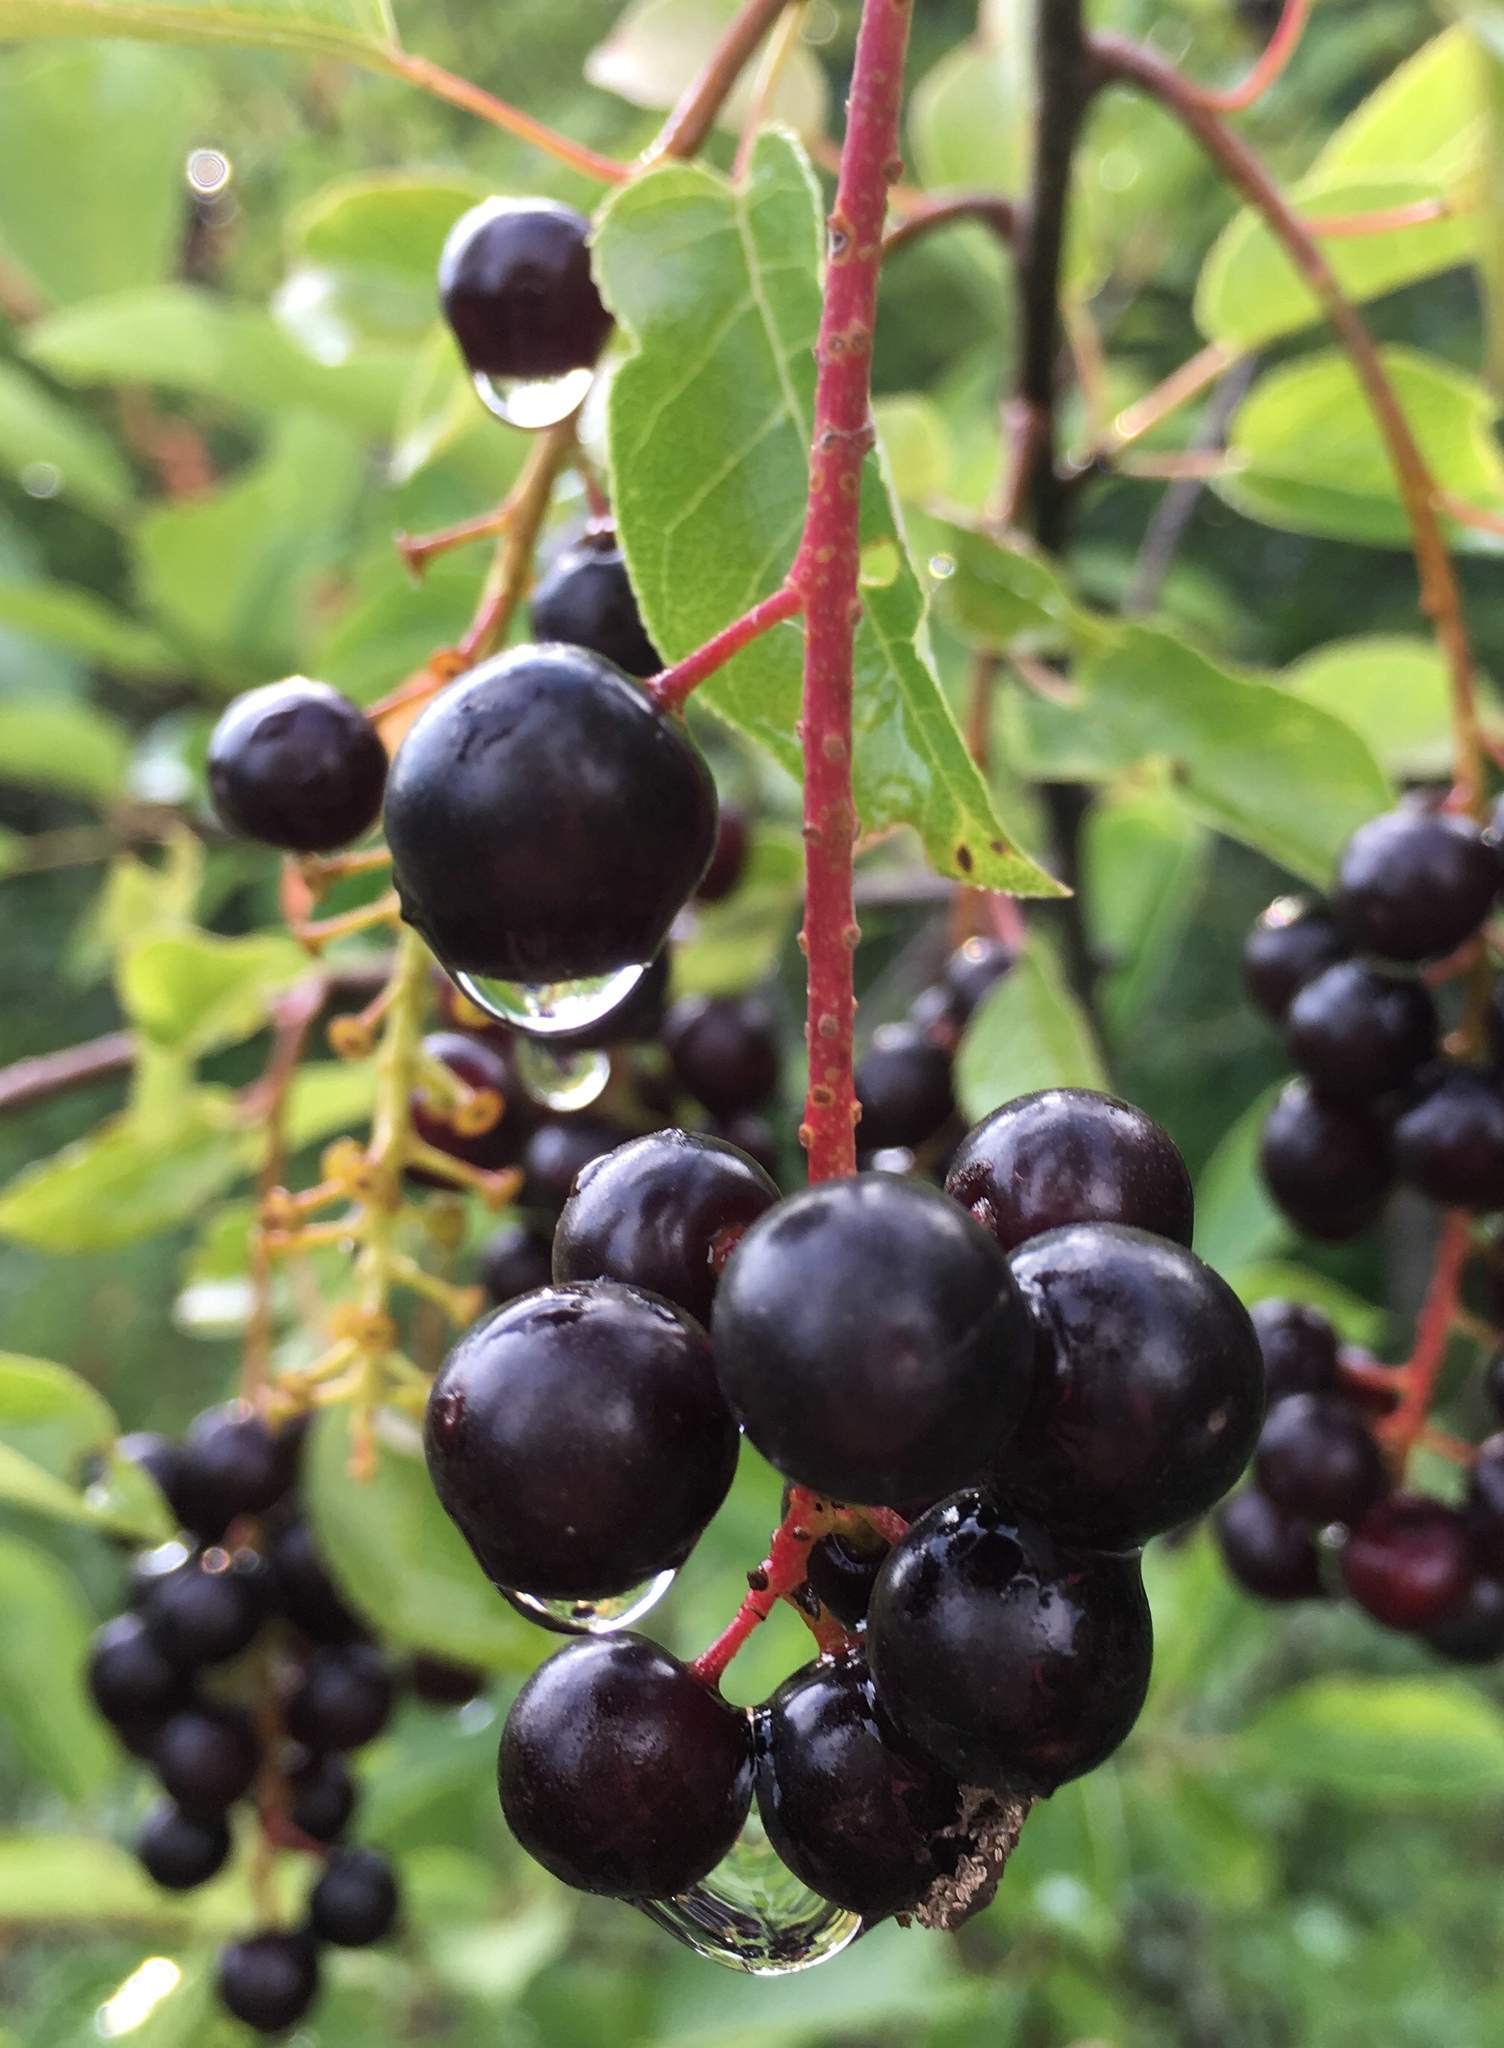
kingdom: Plantae
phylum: Tracheophyta
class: Magnoliopsida
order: Rosales
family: Rosaceae
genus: Prunus
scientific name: Prunus virginiana
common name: Chokecherry
